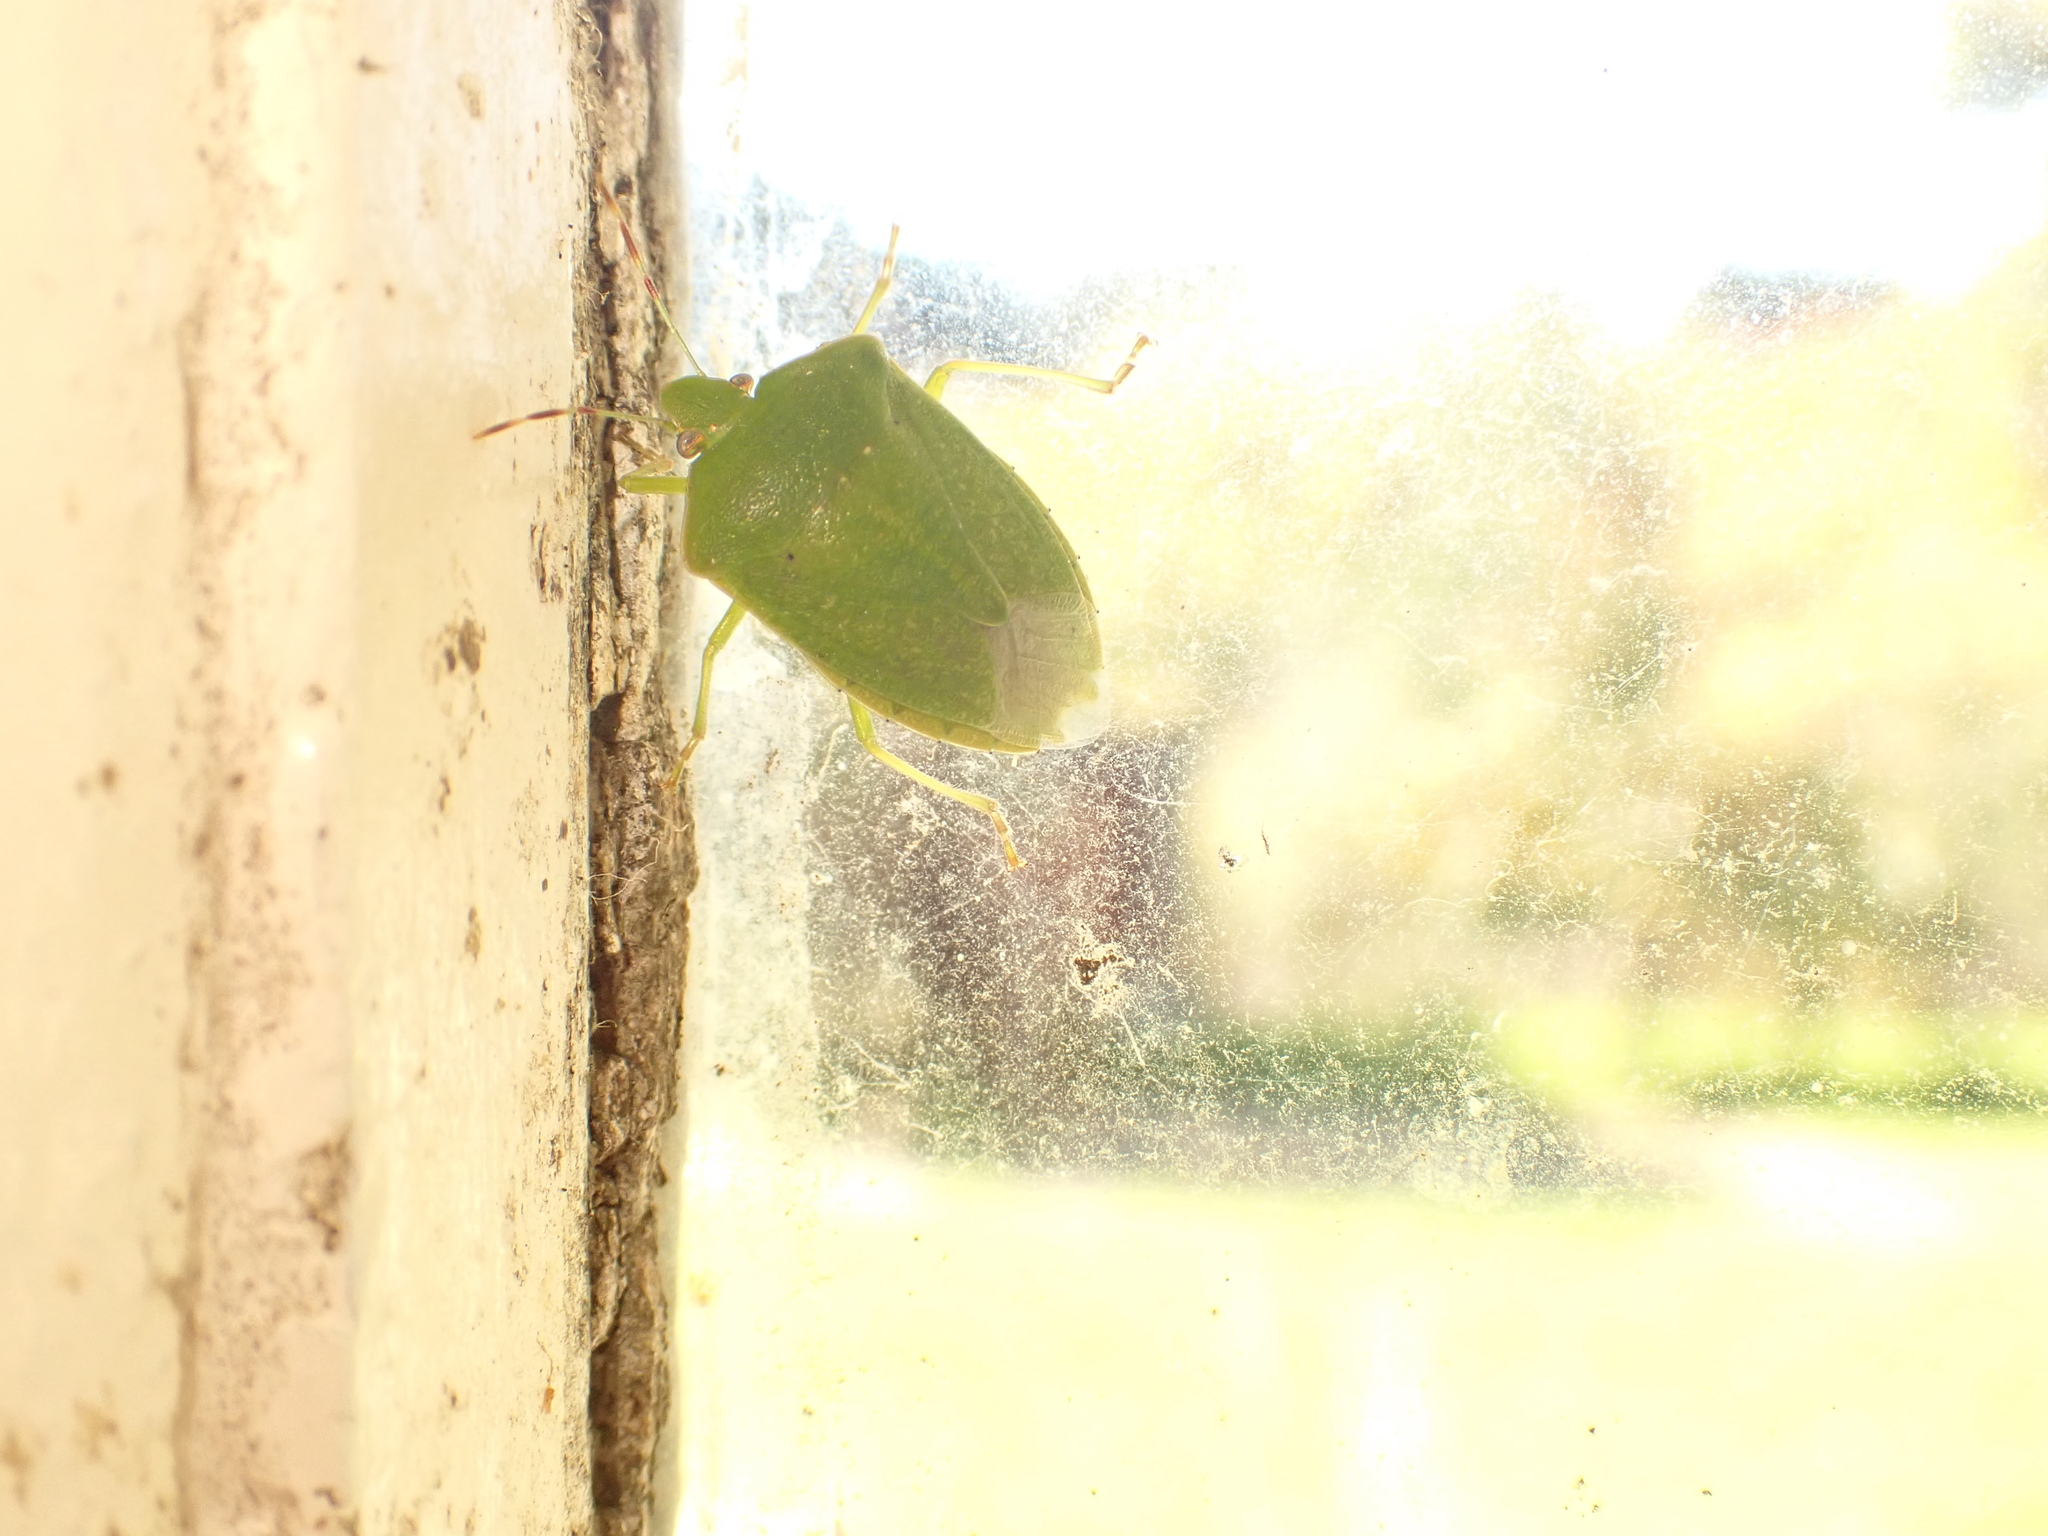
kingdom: Animalia
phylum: Arthropoda
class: Insecta
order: Hemiptera
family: Pentatomidae
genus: Nezara
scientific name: Nezara viridula
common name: Southern green stink bug
